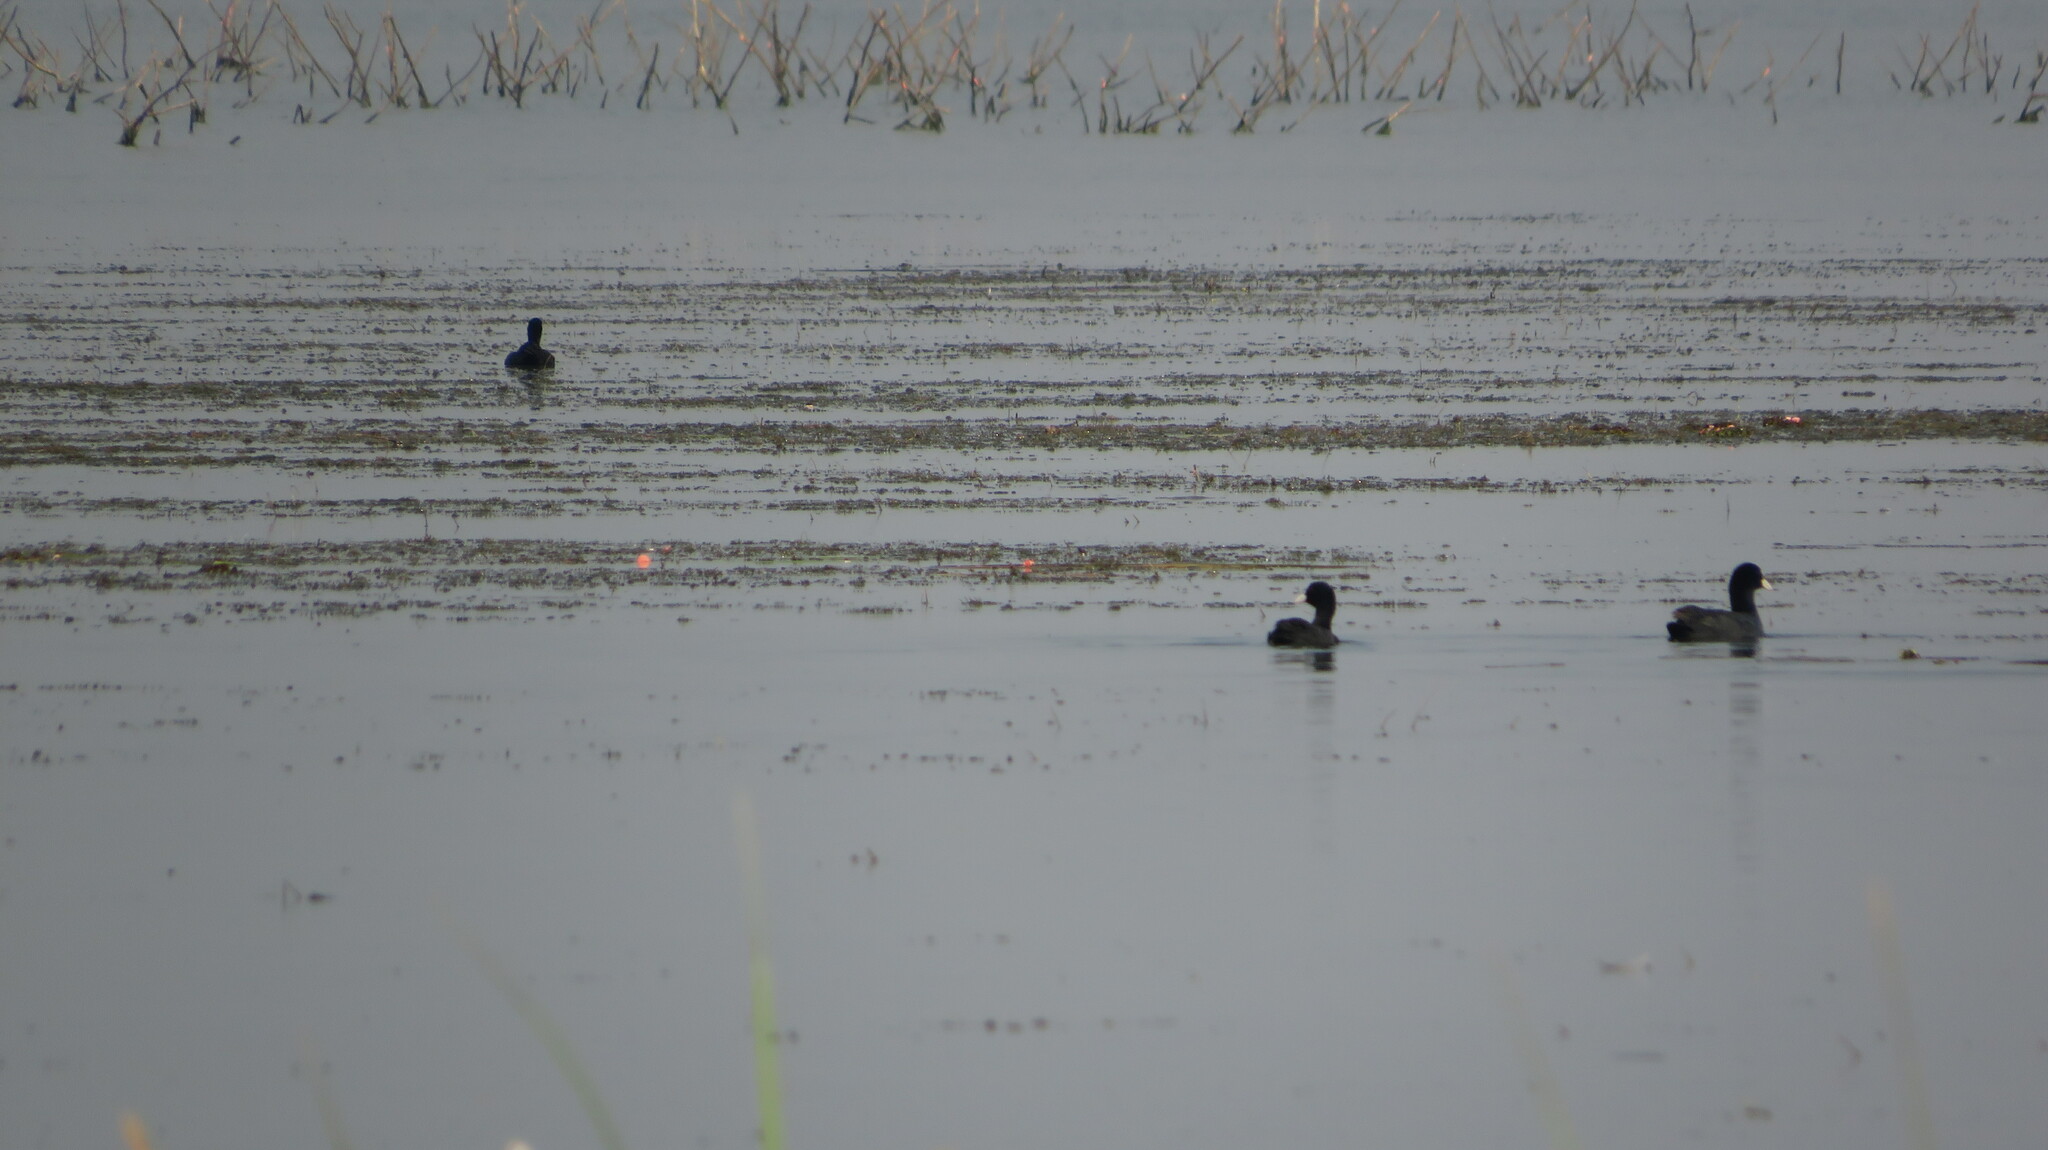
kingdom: Animalia
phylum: Chordata
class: Aves
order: Gruiformes
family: Rallidae
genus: Fulica
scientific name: Fulica atra
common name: Eurasian coot
